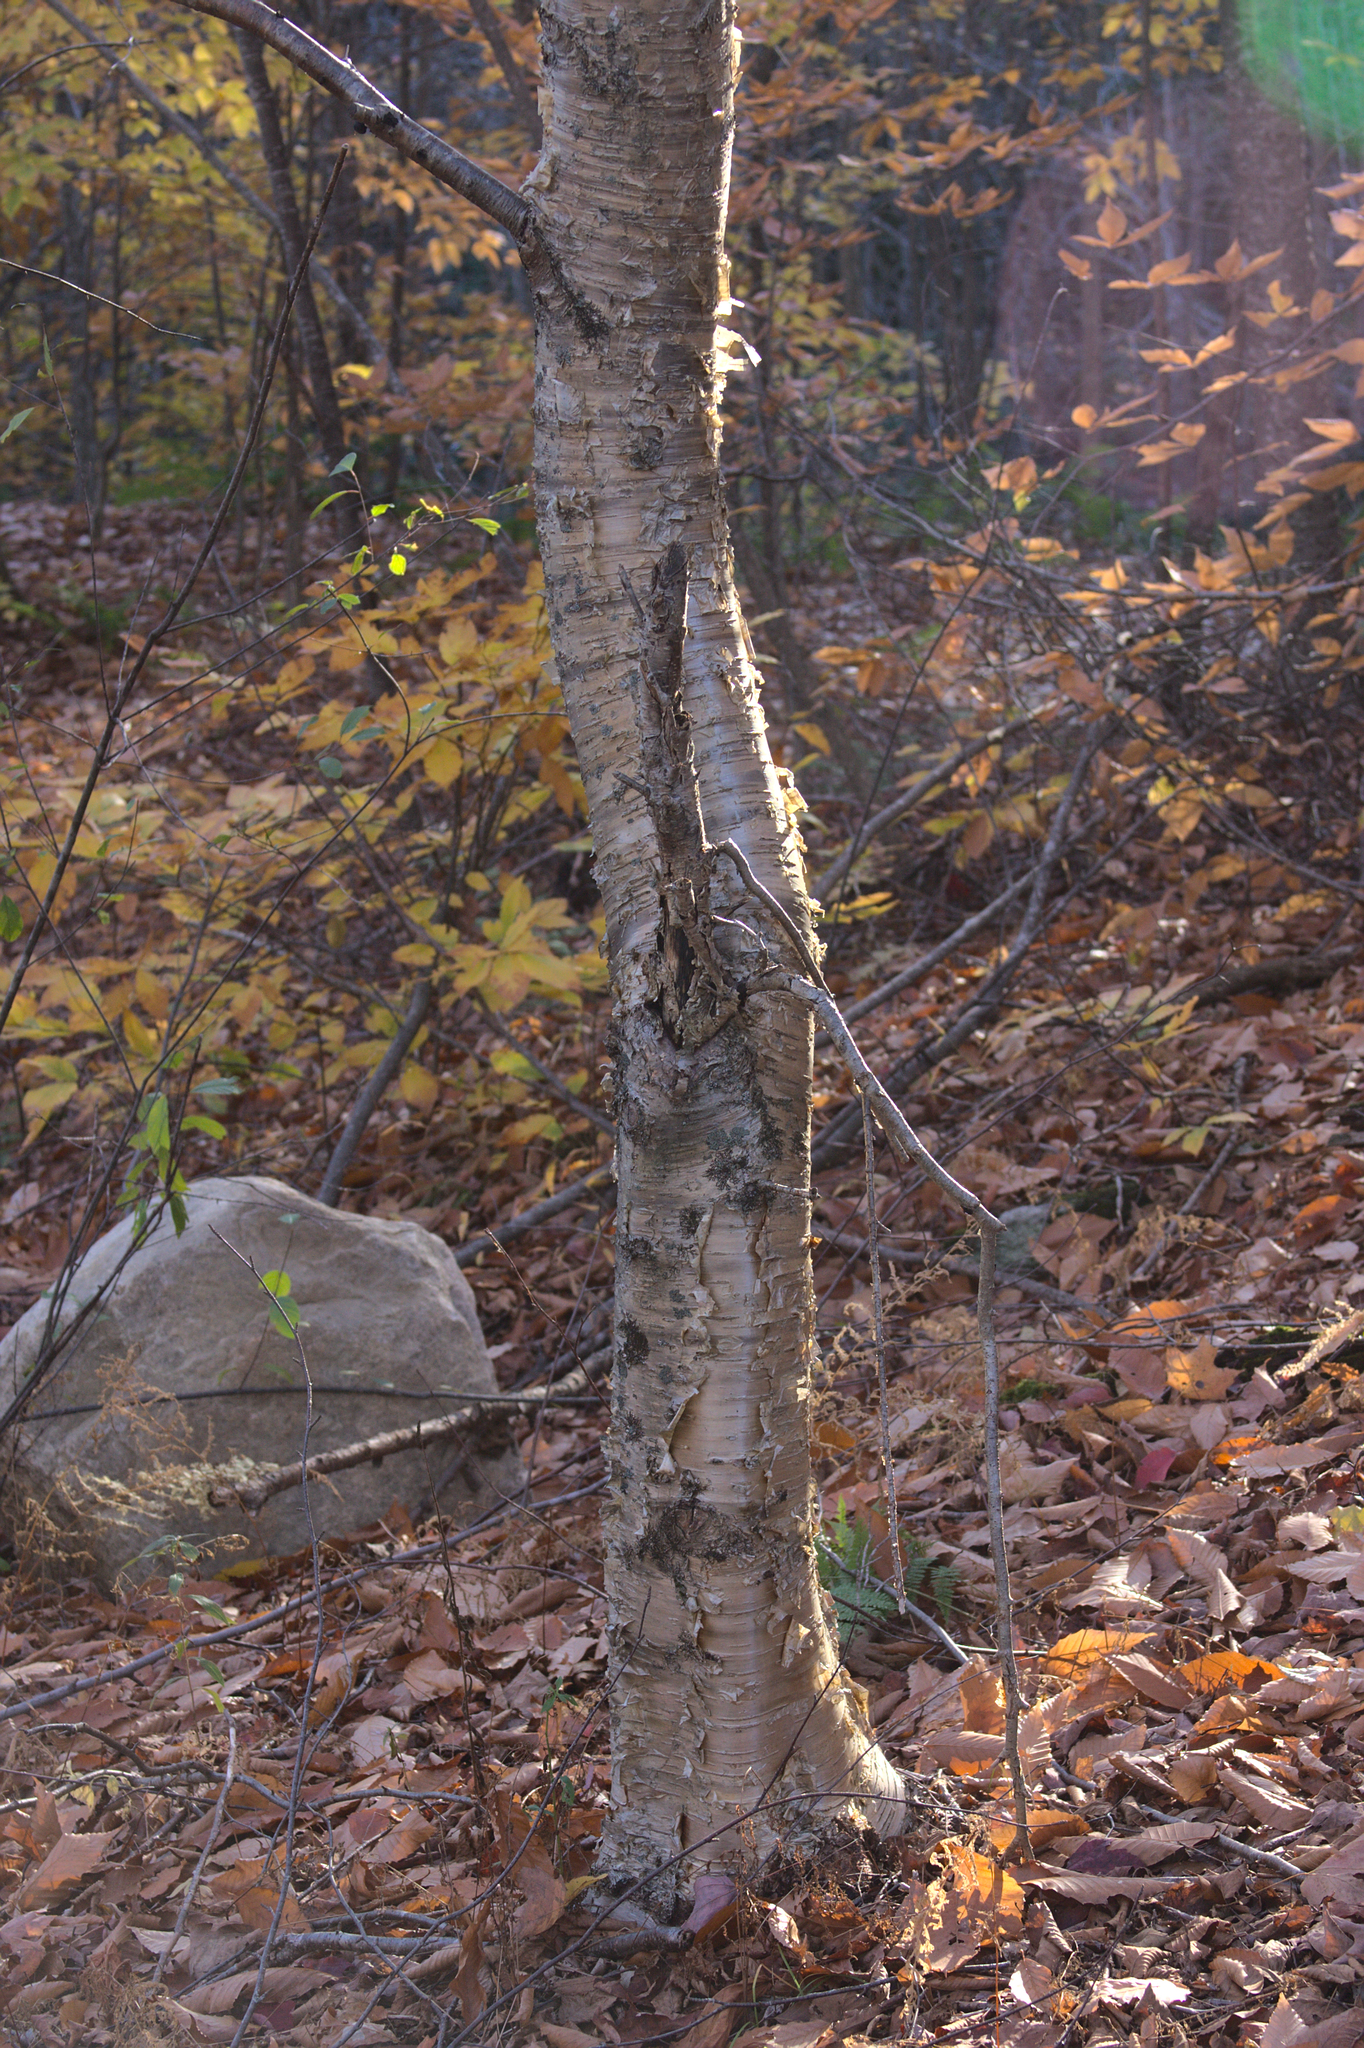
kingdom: Plantae
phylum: Tracheophyta
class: Magnoliopsida
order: Fagales
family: Betulaceae
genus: Betula
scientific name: Betula alleghaniensis
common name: Yellow birch
